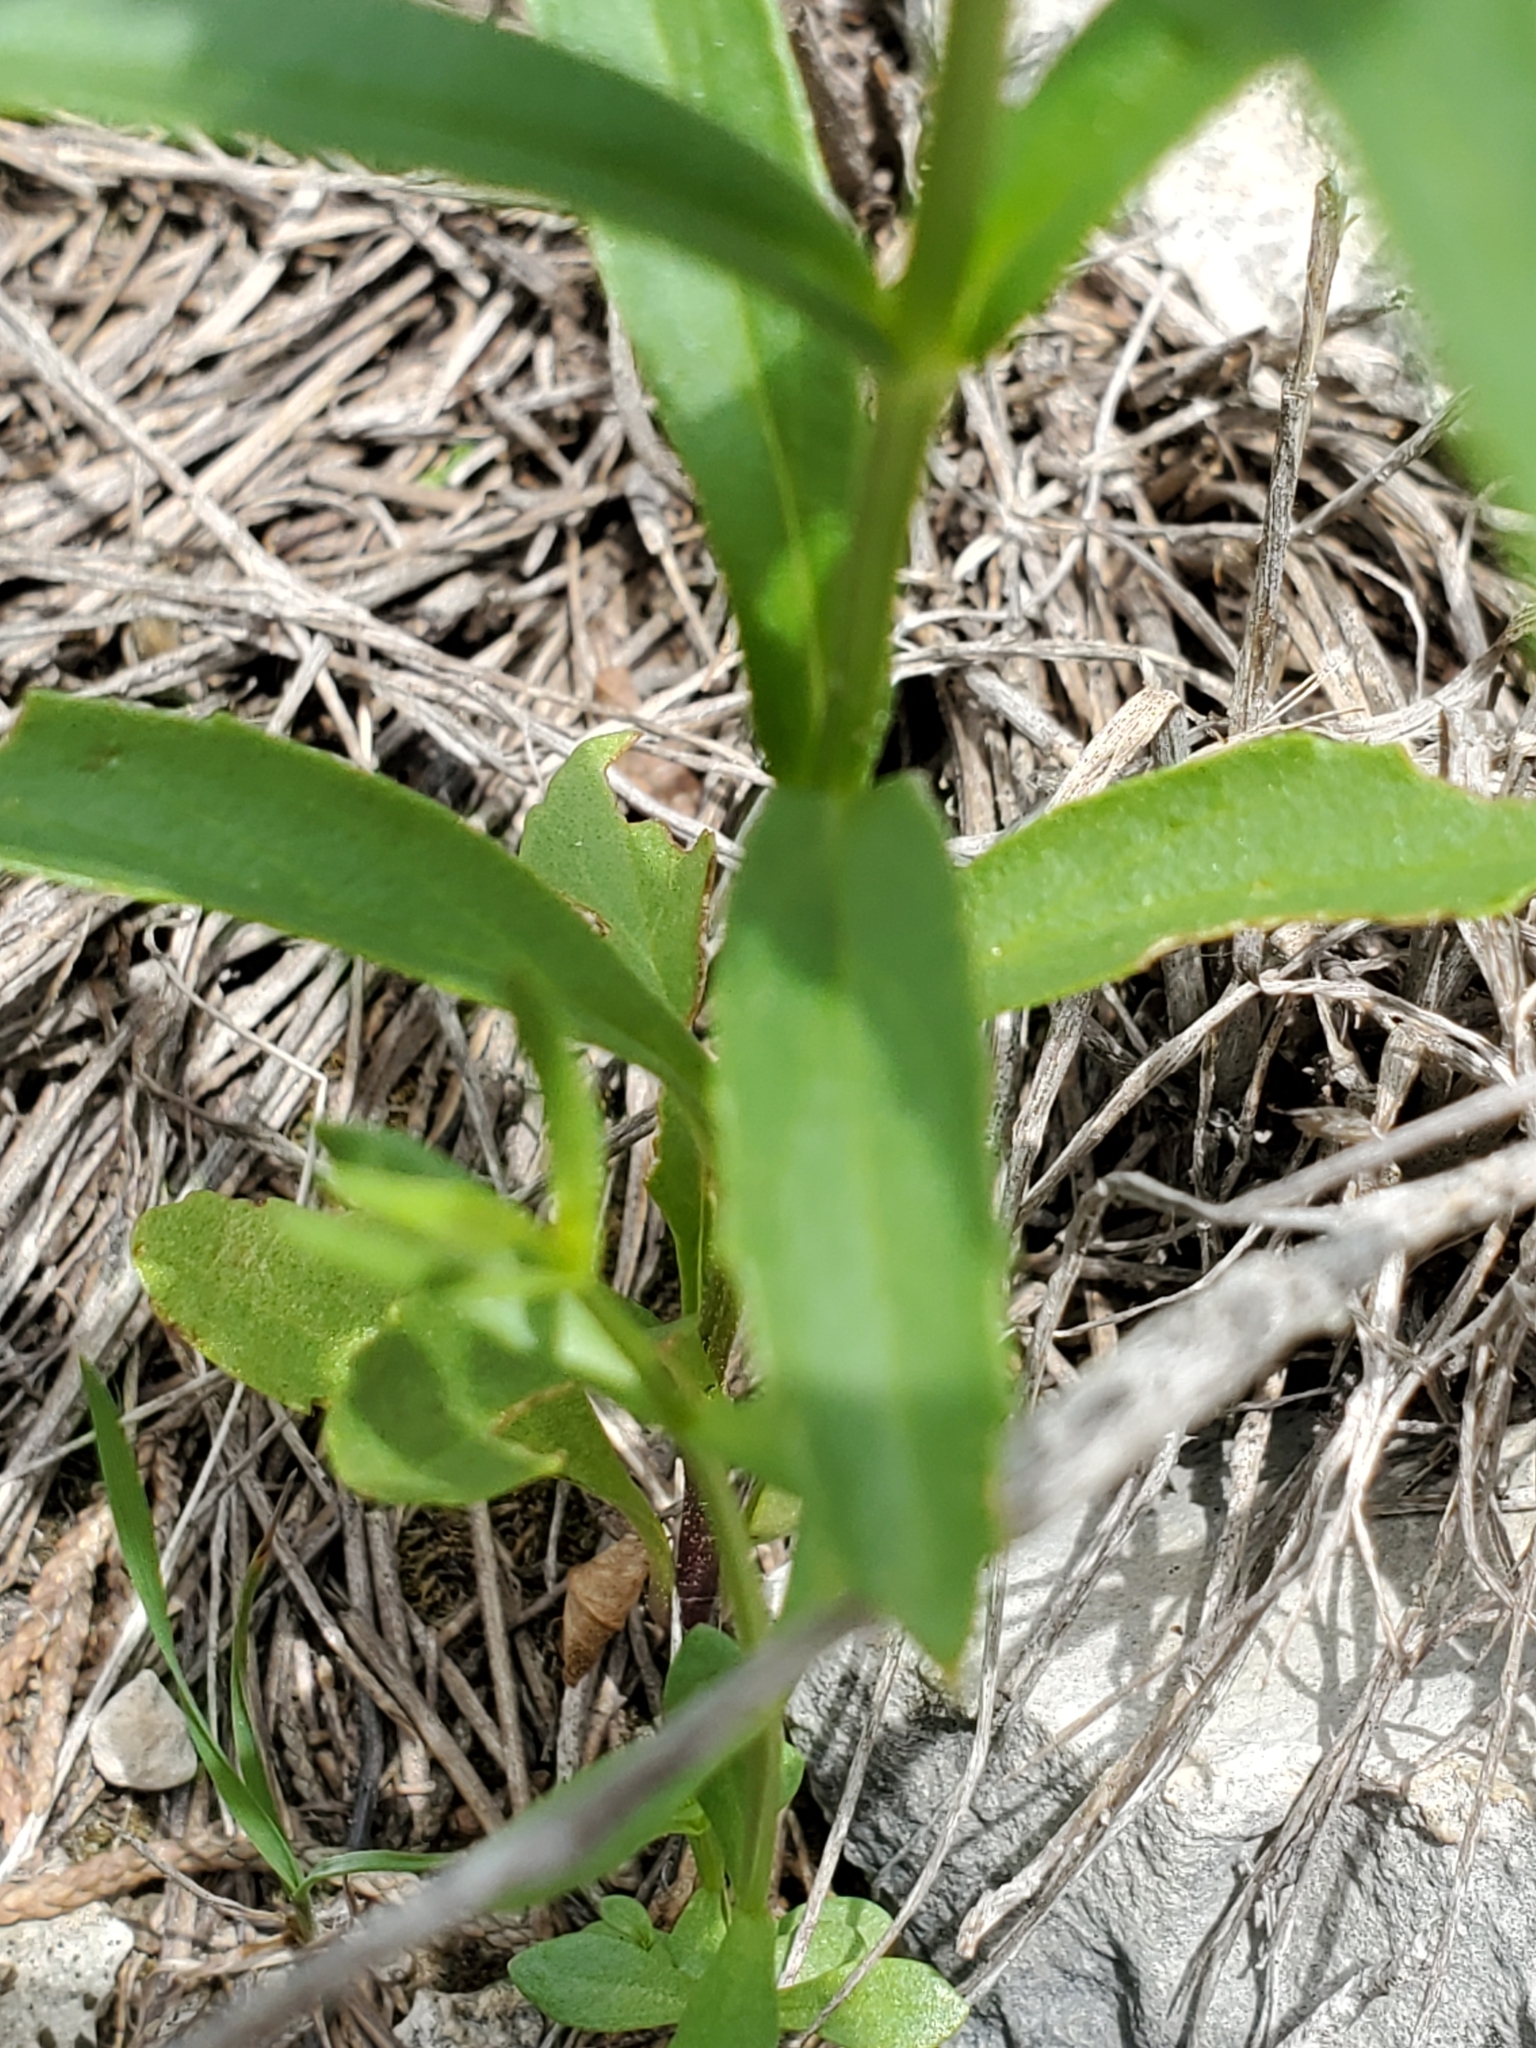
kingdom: Plantae
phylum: Tracheophyta
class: Magnoliopsida
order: Lamiales
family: Lamiaceae
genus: Warnockia
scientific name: Warnockia scutellarioides
